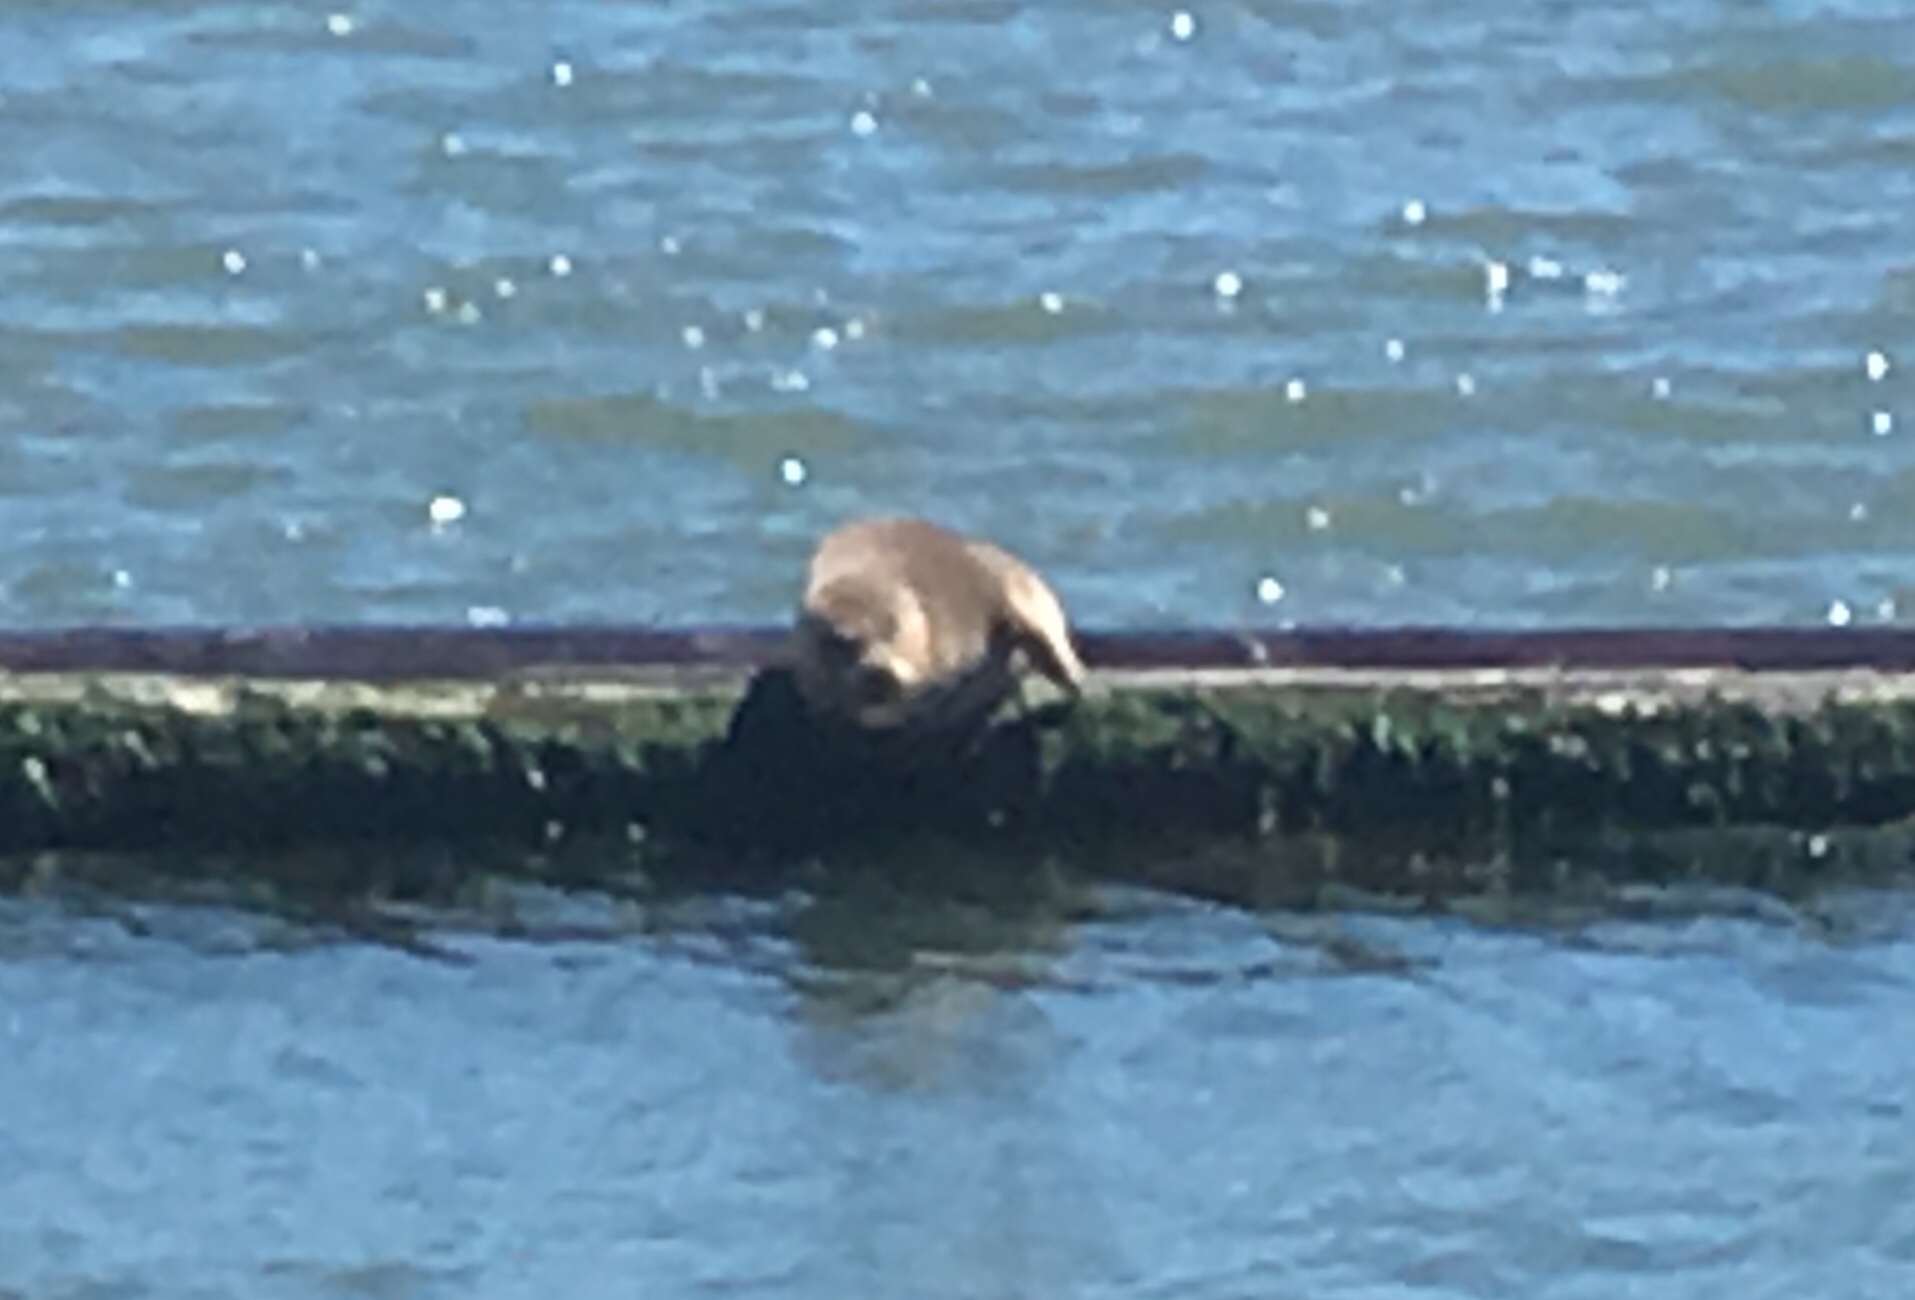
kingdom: Animalia
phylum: Chordata
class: Mammalia
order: Carnivora
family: Phocidae
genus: Phoca
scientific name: Phoca vitulina
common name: Harbor seal
